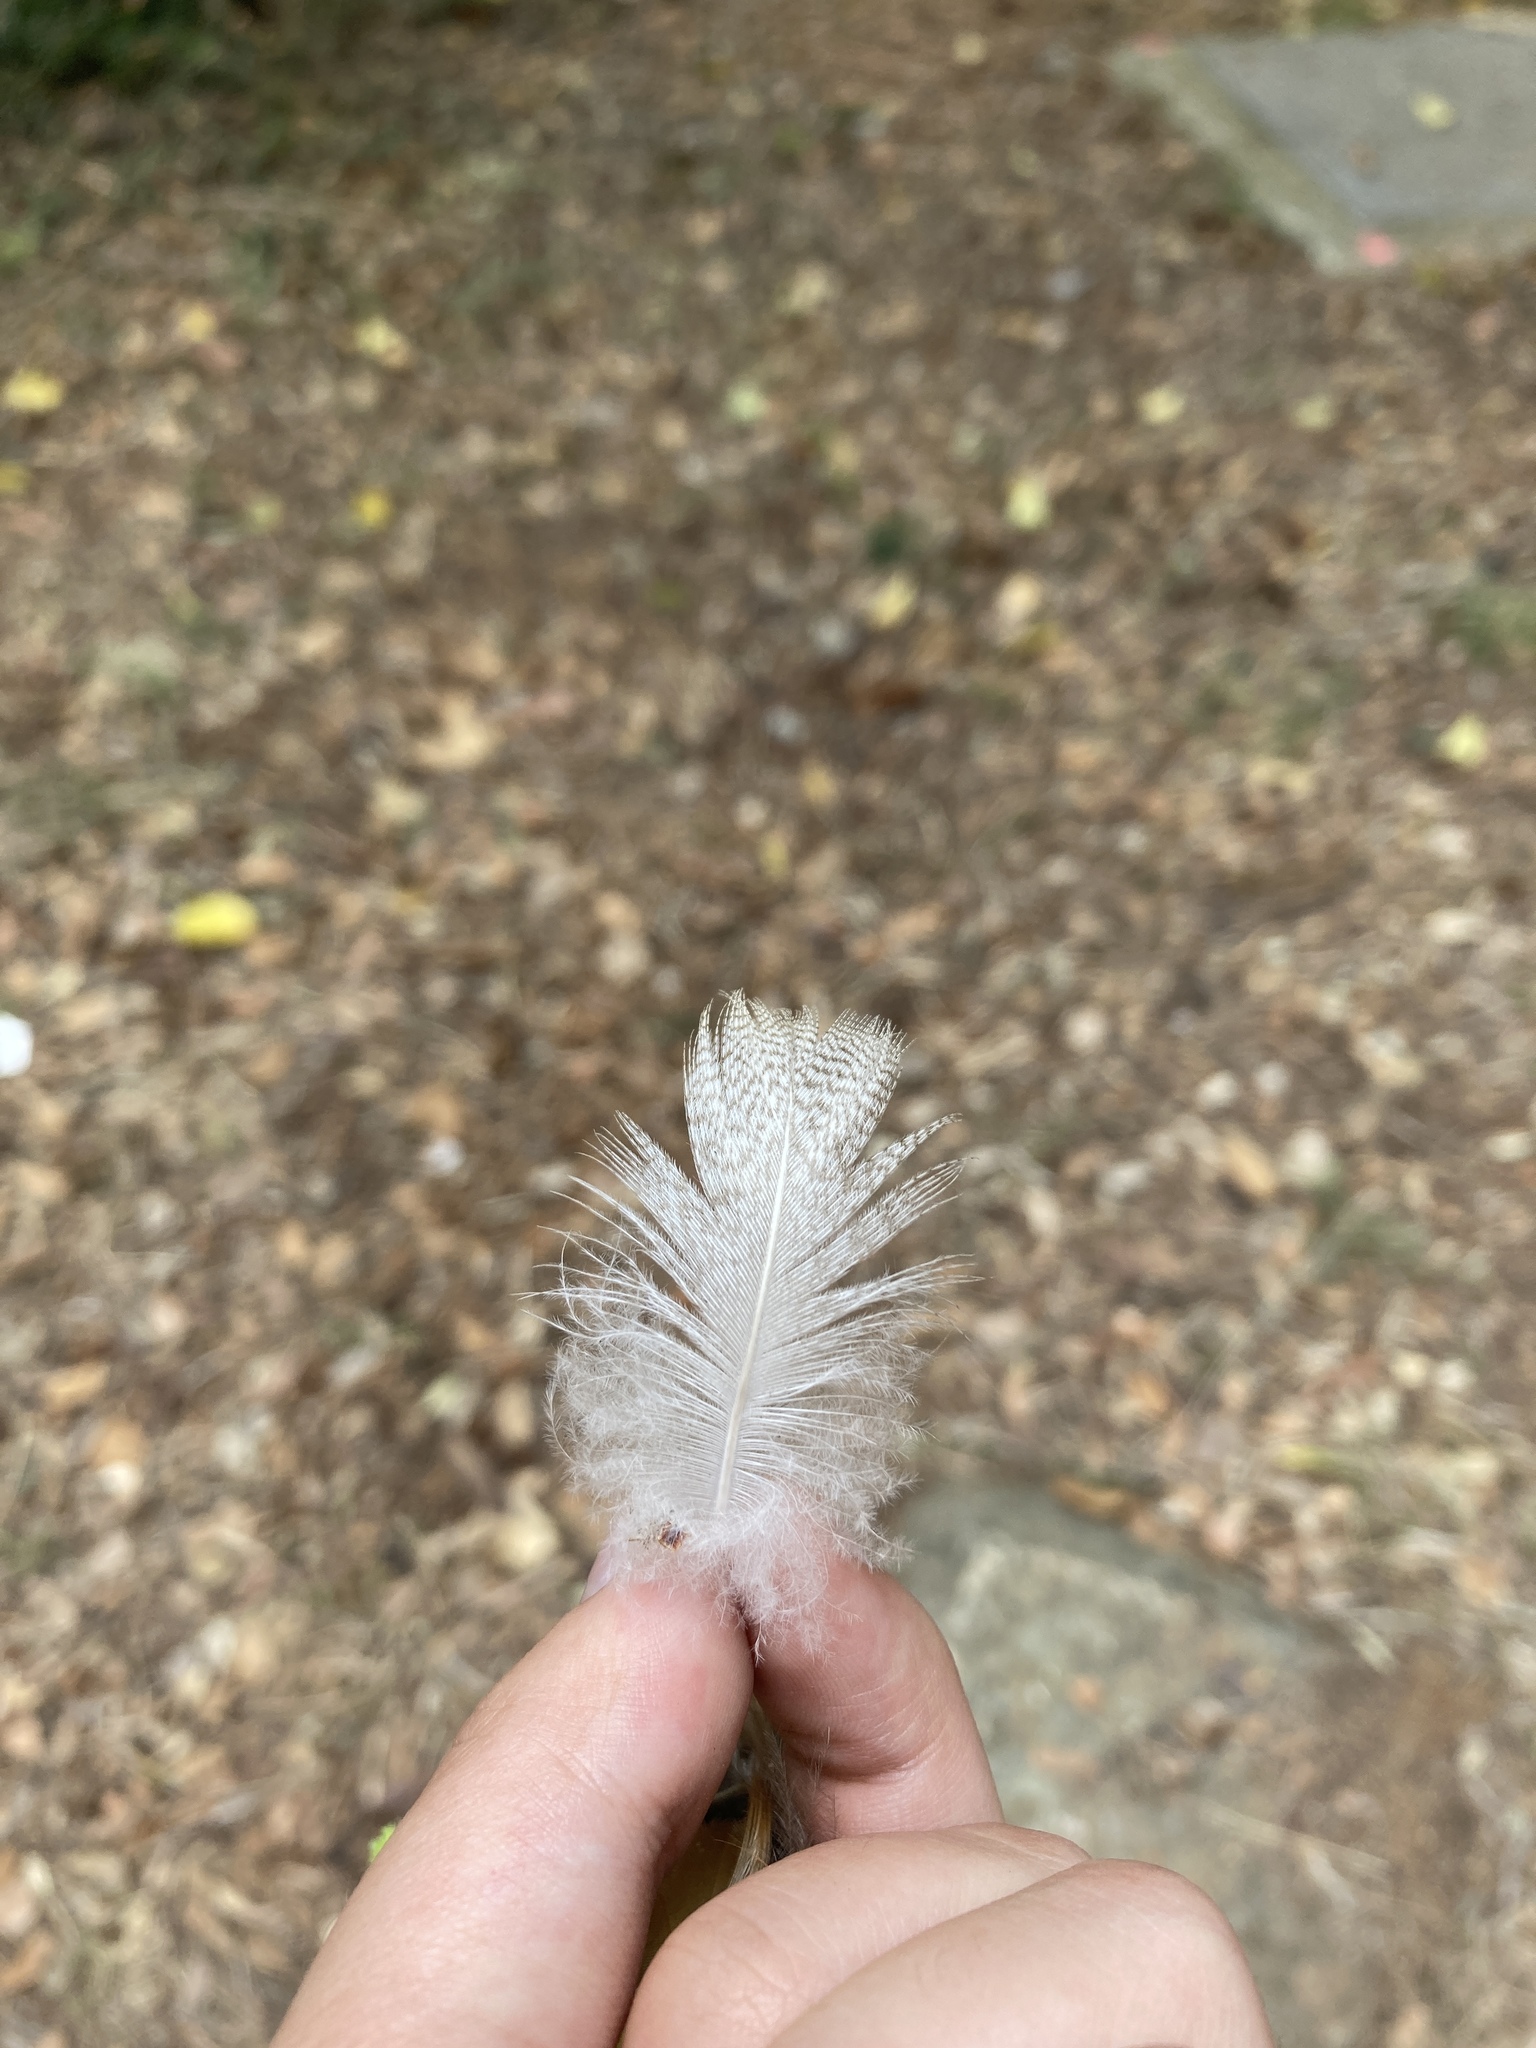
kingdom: Animalia
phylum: Chordata
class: Aves
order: Anseriformes
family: Anatidae
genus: Anas
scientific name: Anas platyrhynchos
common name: Mallard
